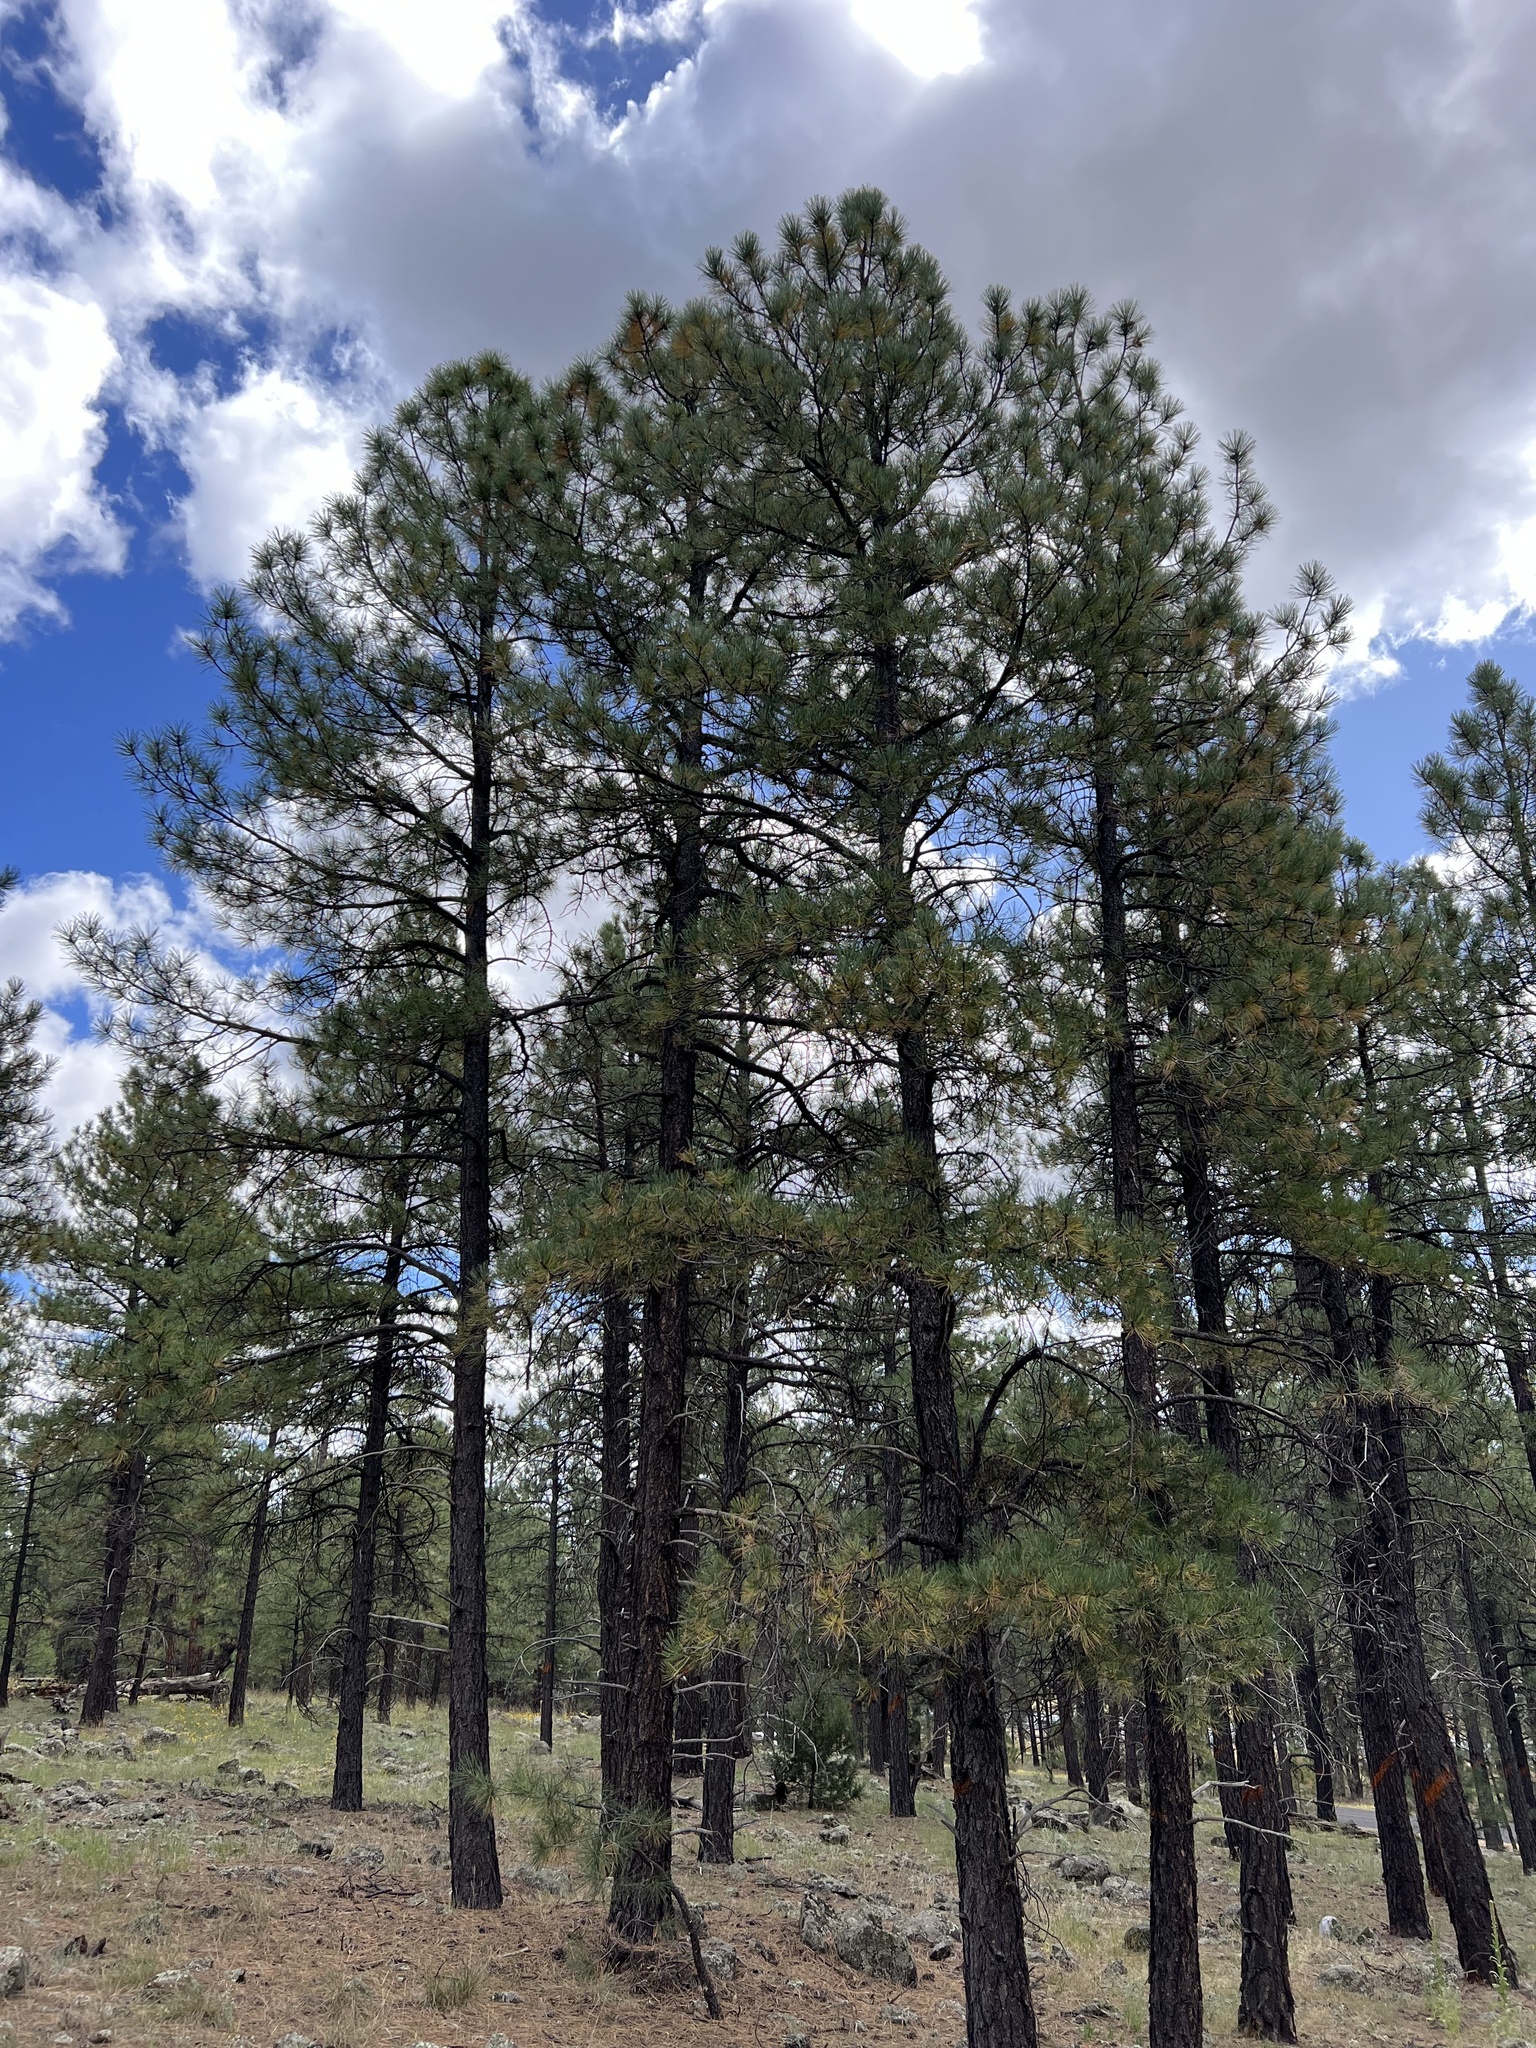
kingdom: Plantae
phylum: Tracheophyta
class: Pinopsida
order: Pinales
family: Pinaceae
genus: Pinus
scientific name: Pinus ponderosa
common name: Western yellow-pine
